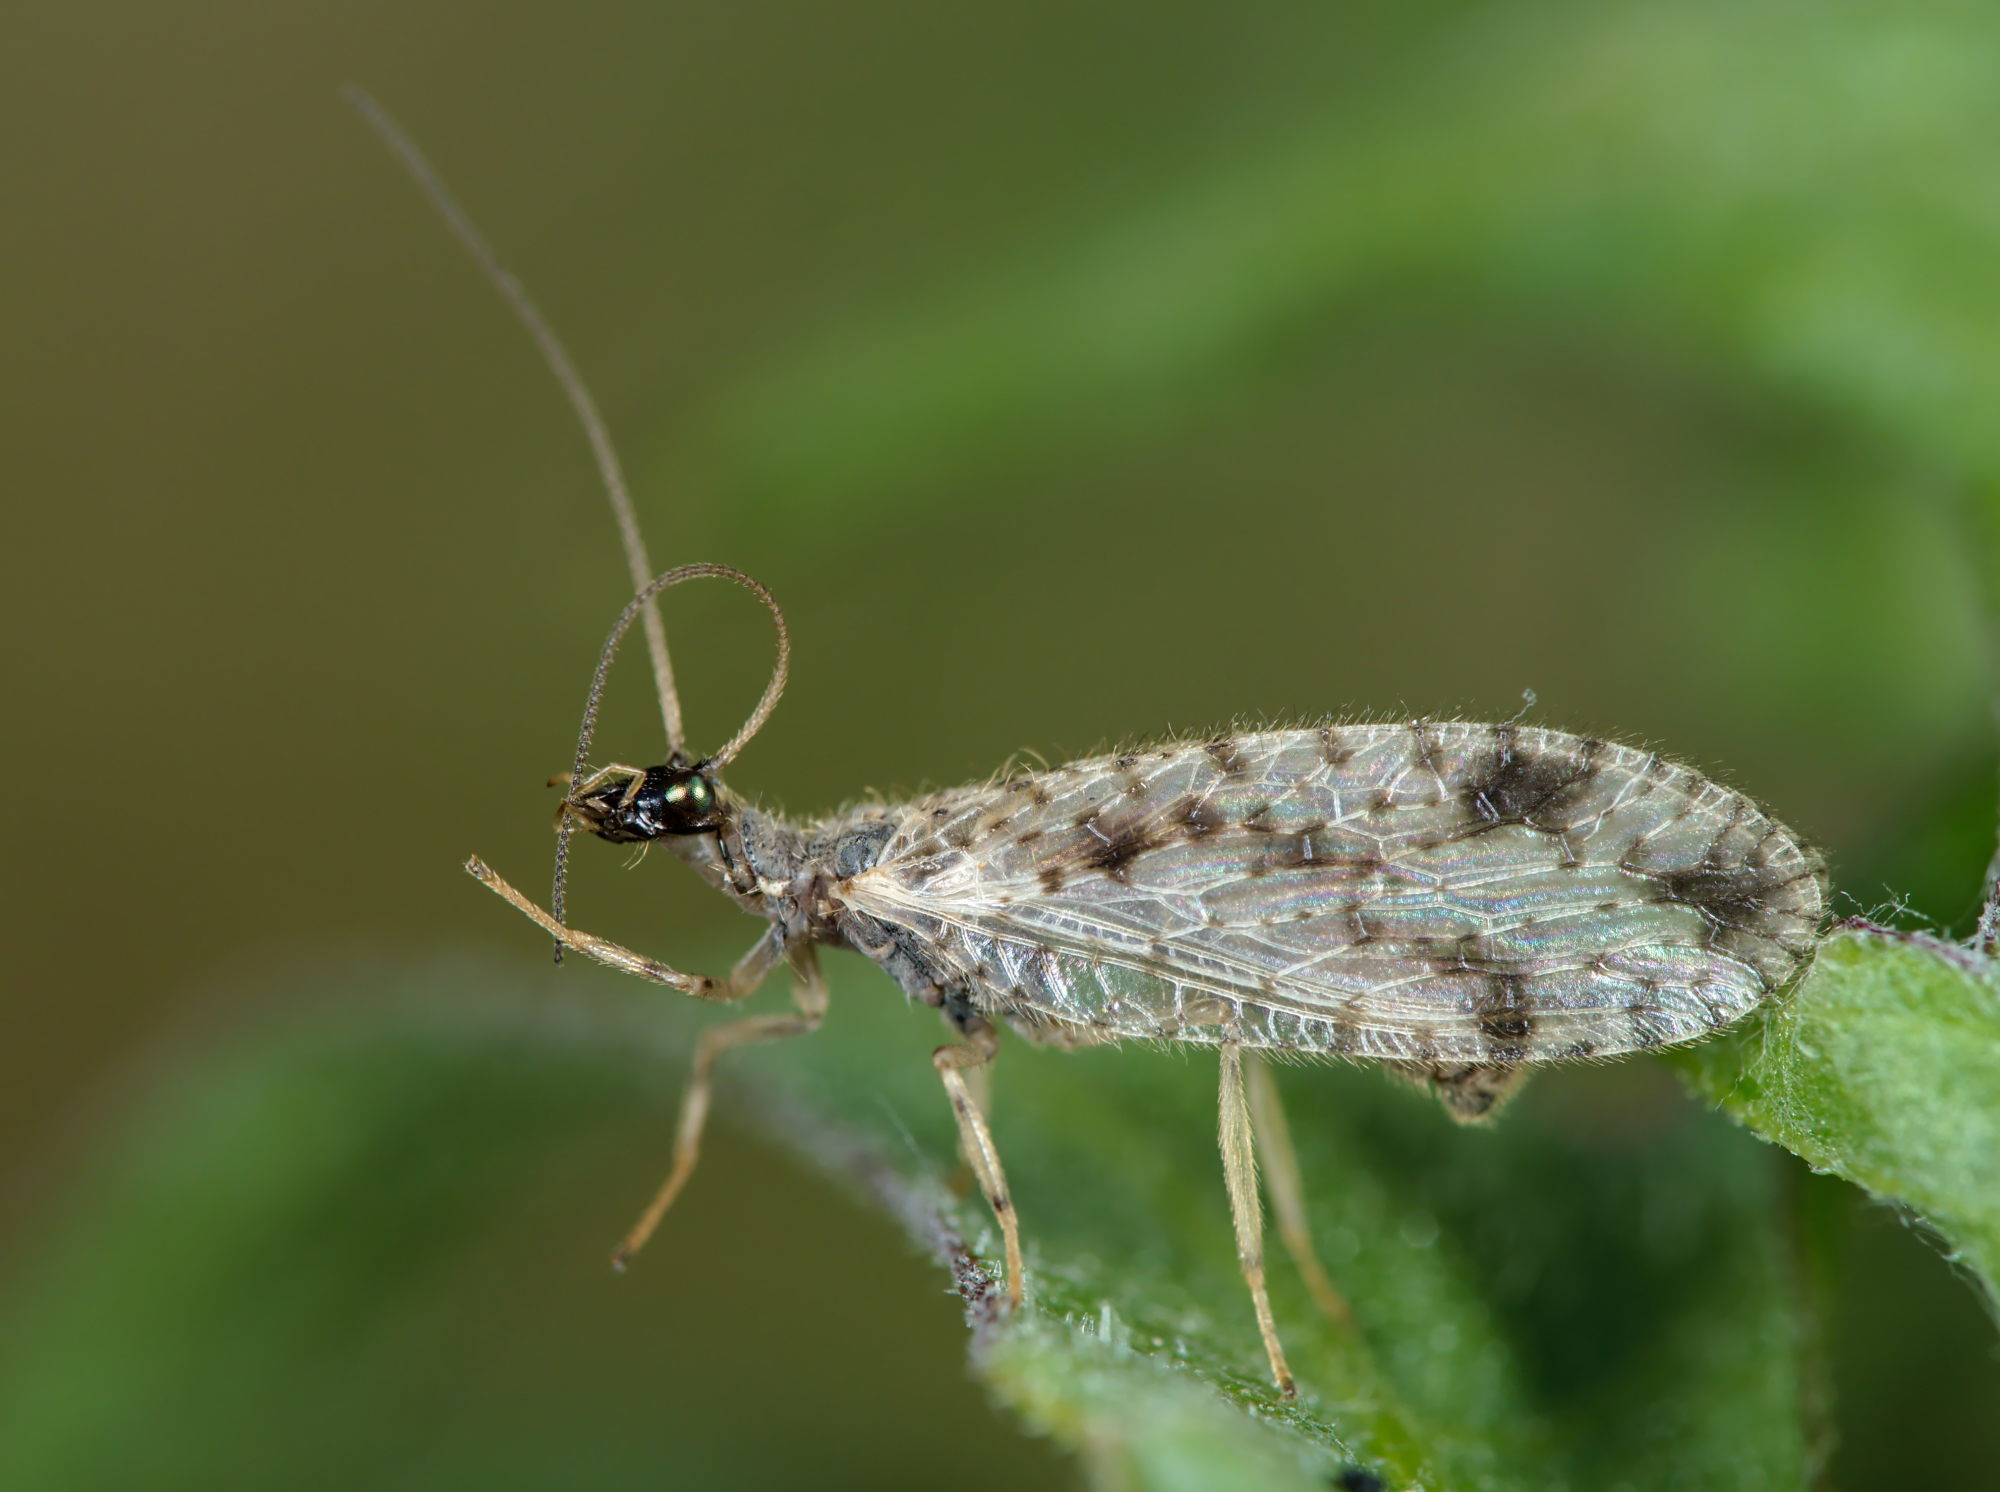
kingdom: Animalia
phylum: Arthropoda
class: Insecta
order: Neuroptera
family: Hemerobiidae
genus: Micromus
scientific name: Micromus variegatus
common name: Brown lacewing
